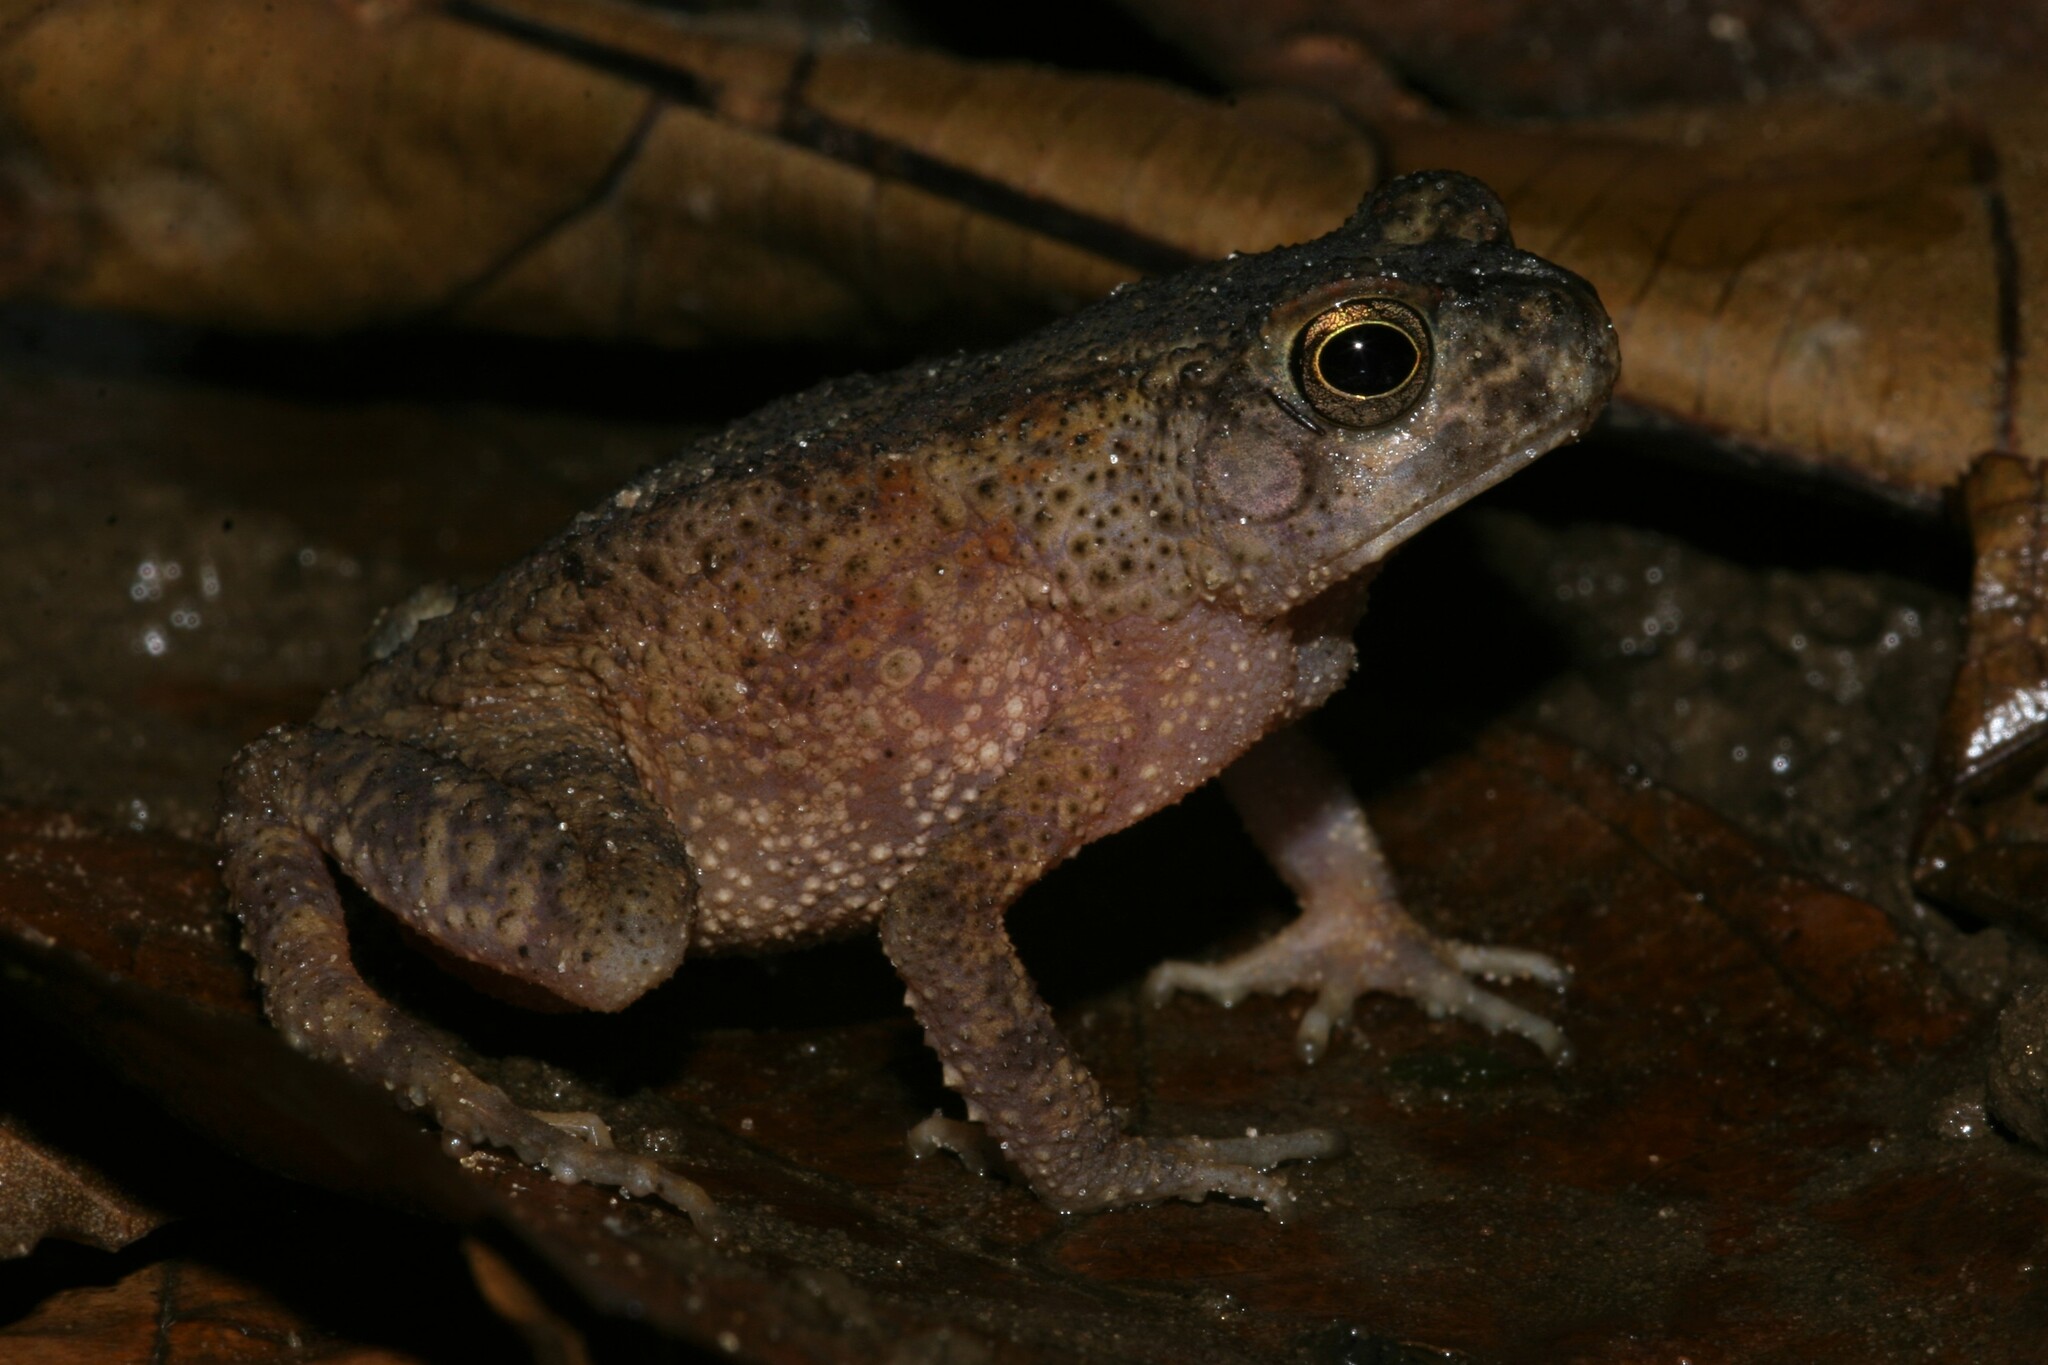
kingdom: Animalia
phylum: Chordata
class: Amphibia
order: Anura
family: Bufonidae
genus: Sclerophrys
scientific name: Sclerophrys gracilipes
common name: French congo toad
